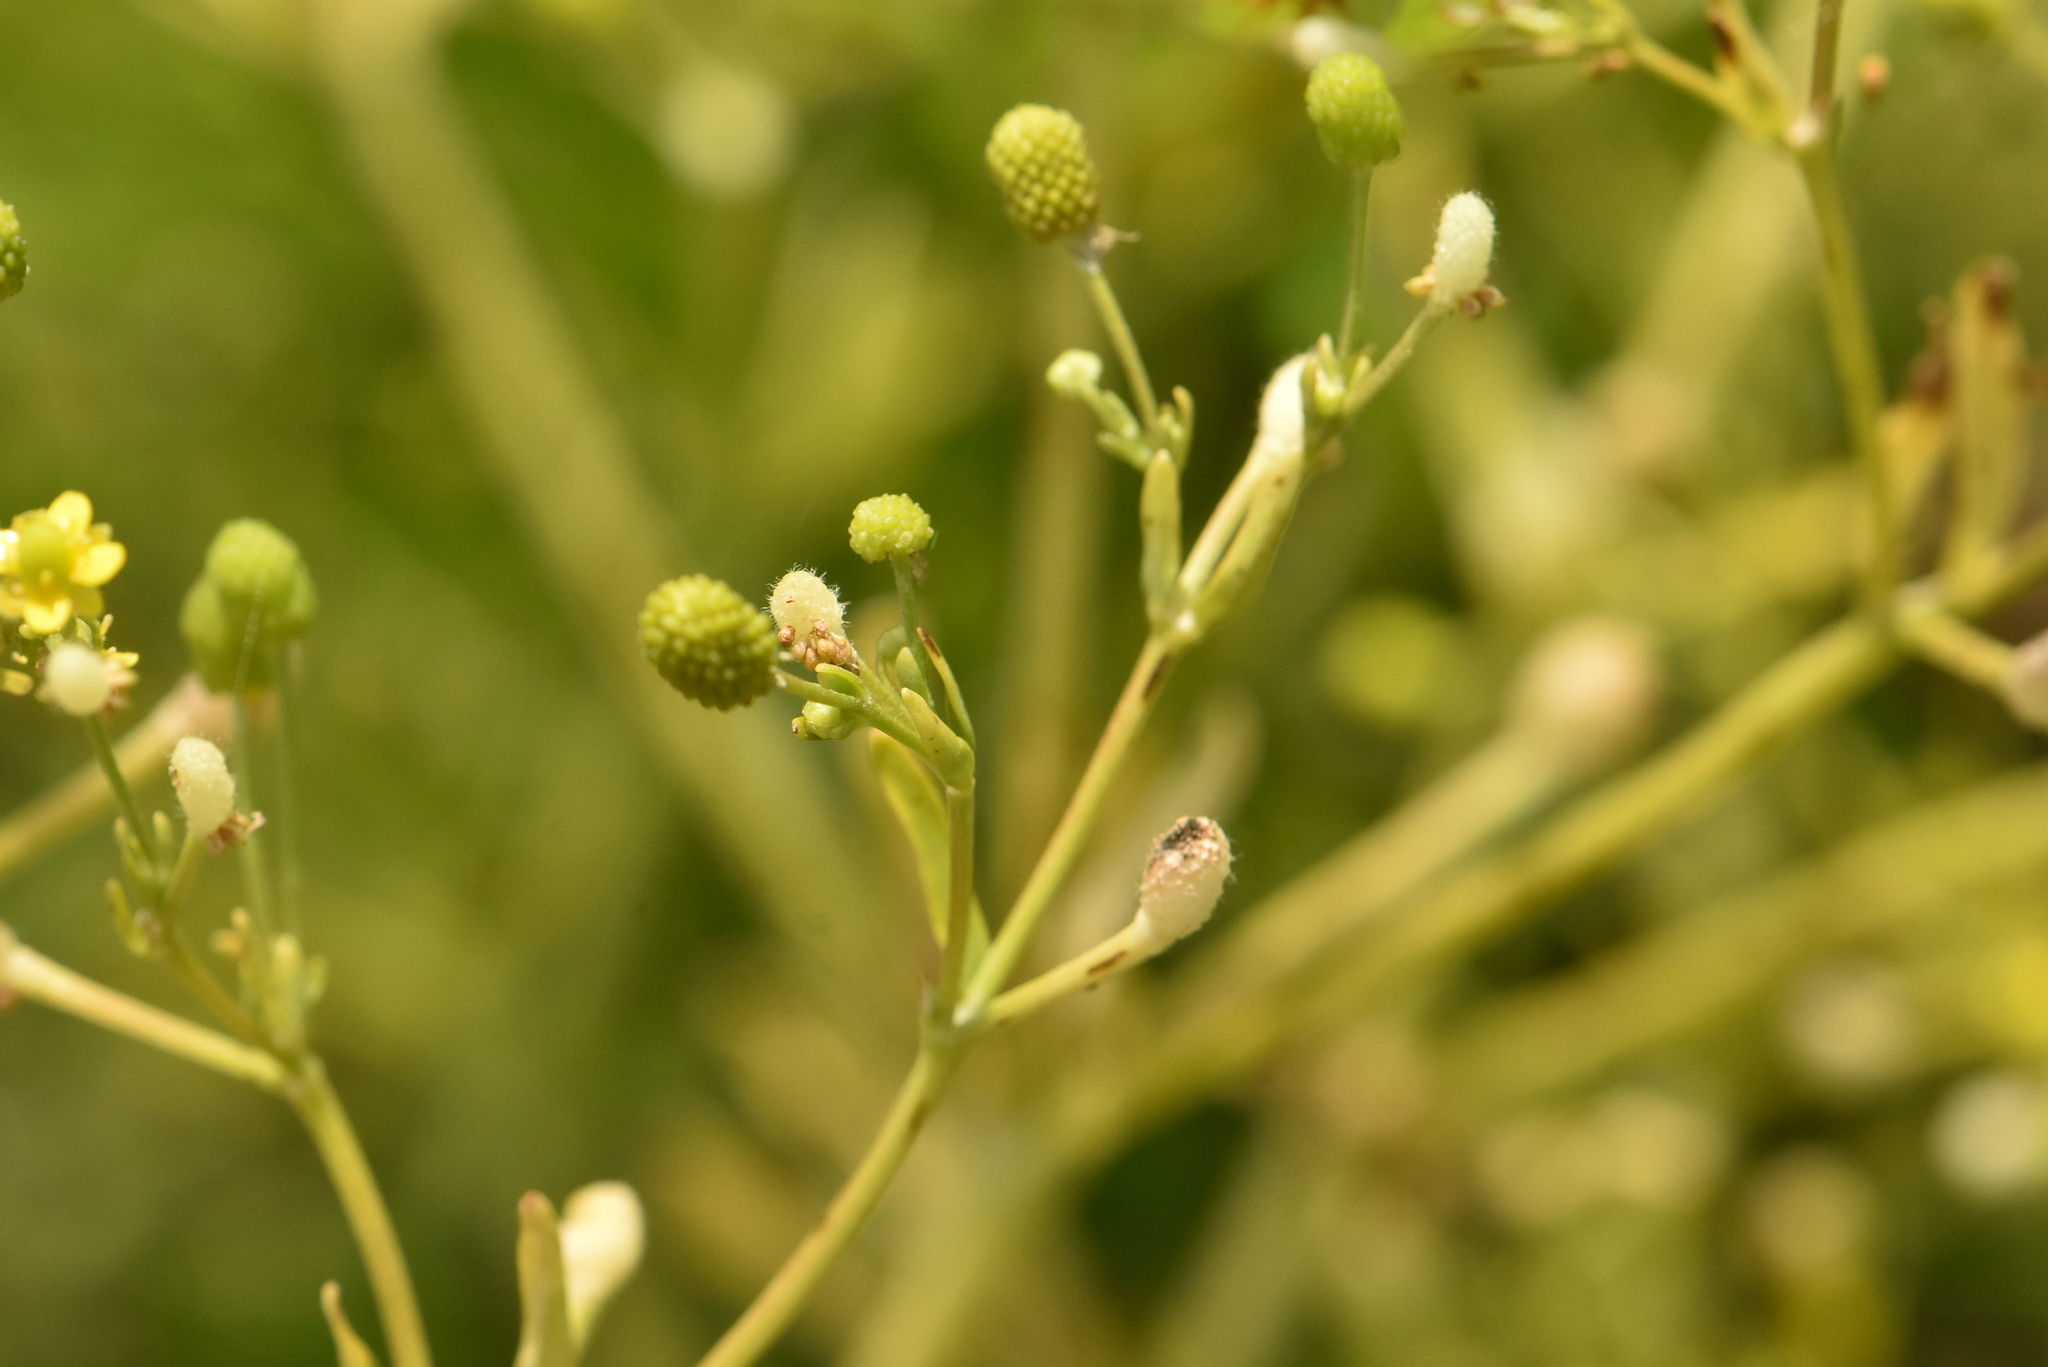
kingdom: Plantae
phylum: Tracheophyta
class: Magnoliopsida
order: Ranunculales
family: Ranunculaceae
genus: Ranunculus
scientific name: Ranunculus sceleratus
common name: Celery-leaved buttercup
